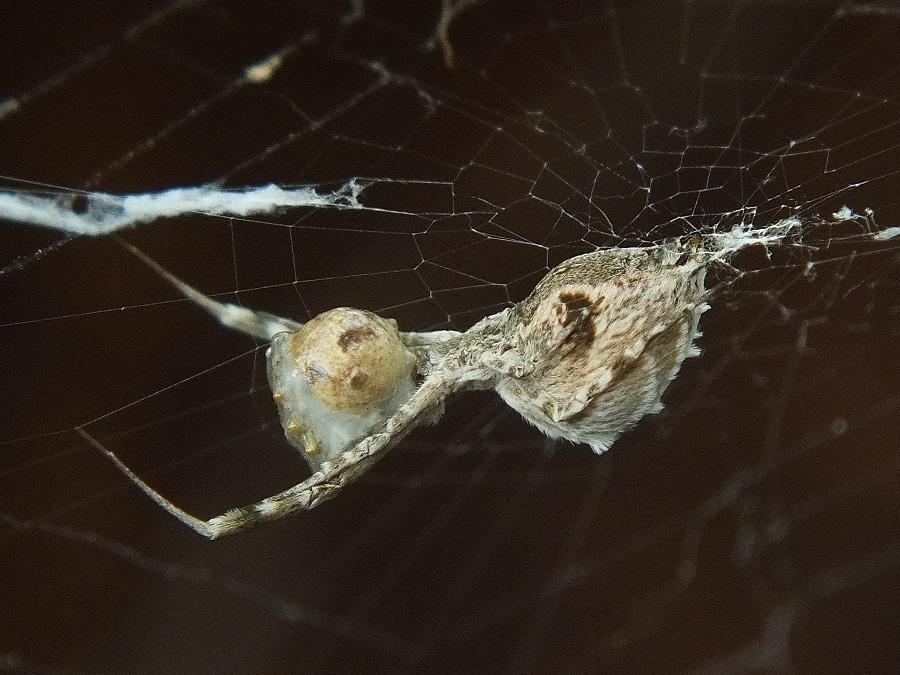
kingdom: Animalia
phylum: Arthropoda
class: Arachnida
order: Araneae
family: Uloboridae
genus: Uloborus
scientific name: Uloborus walckenaerius
